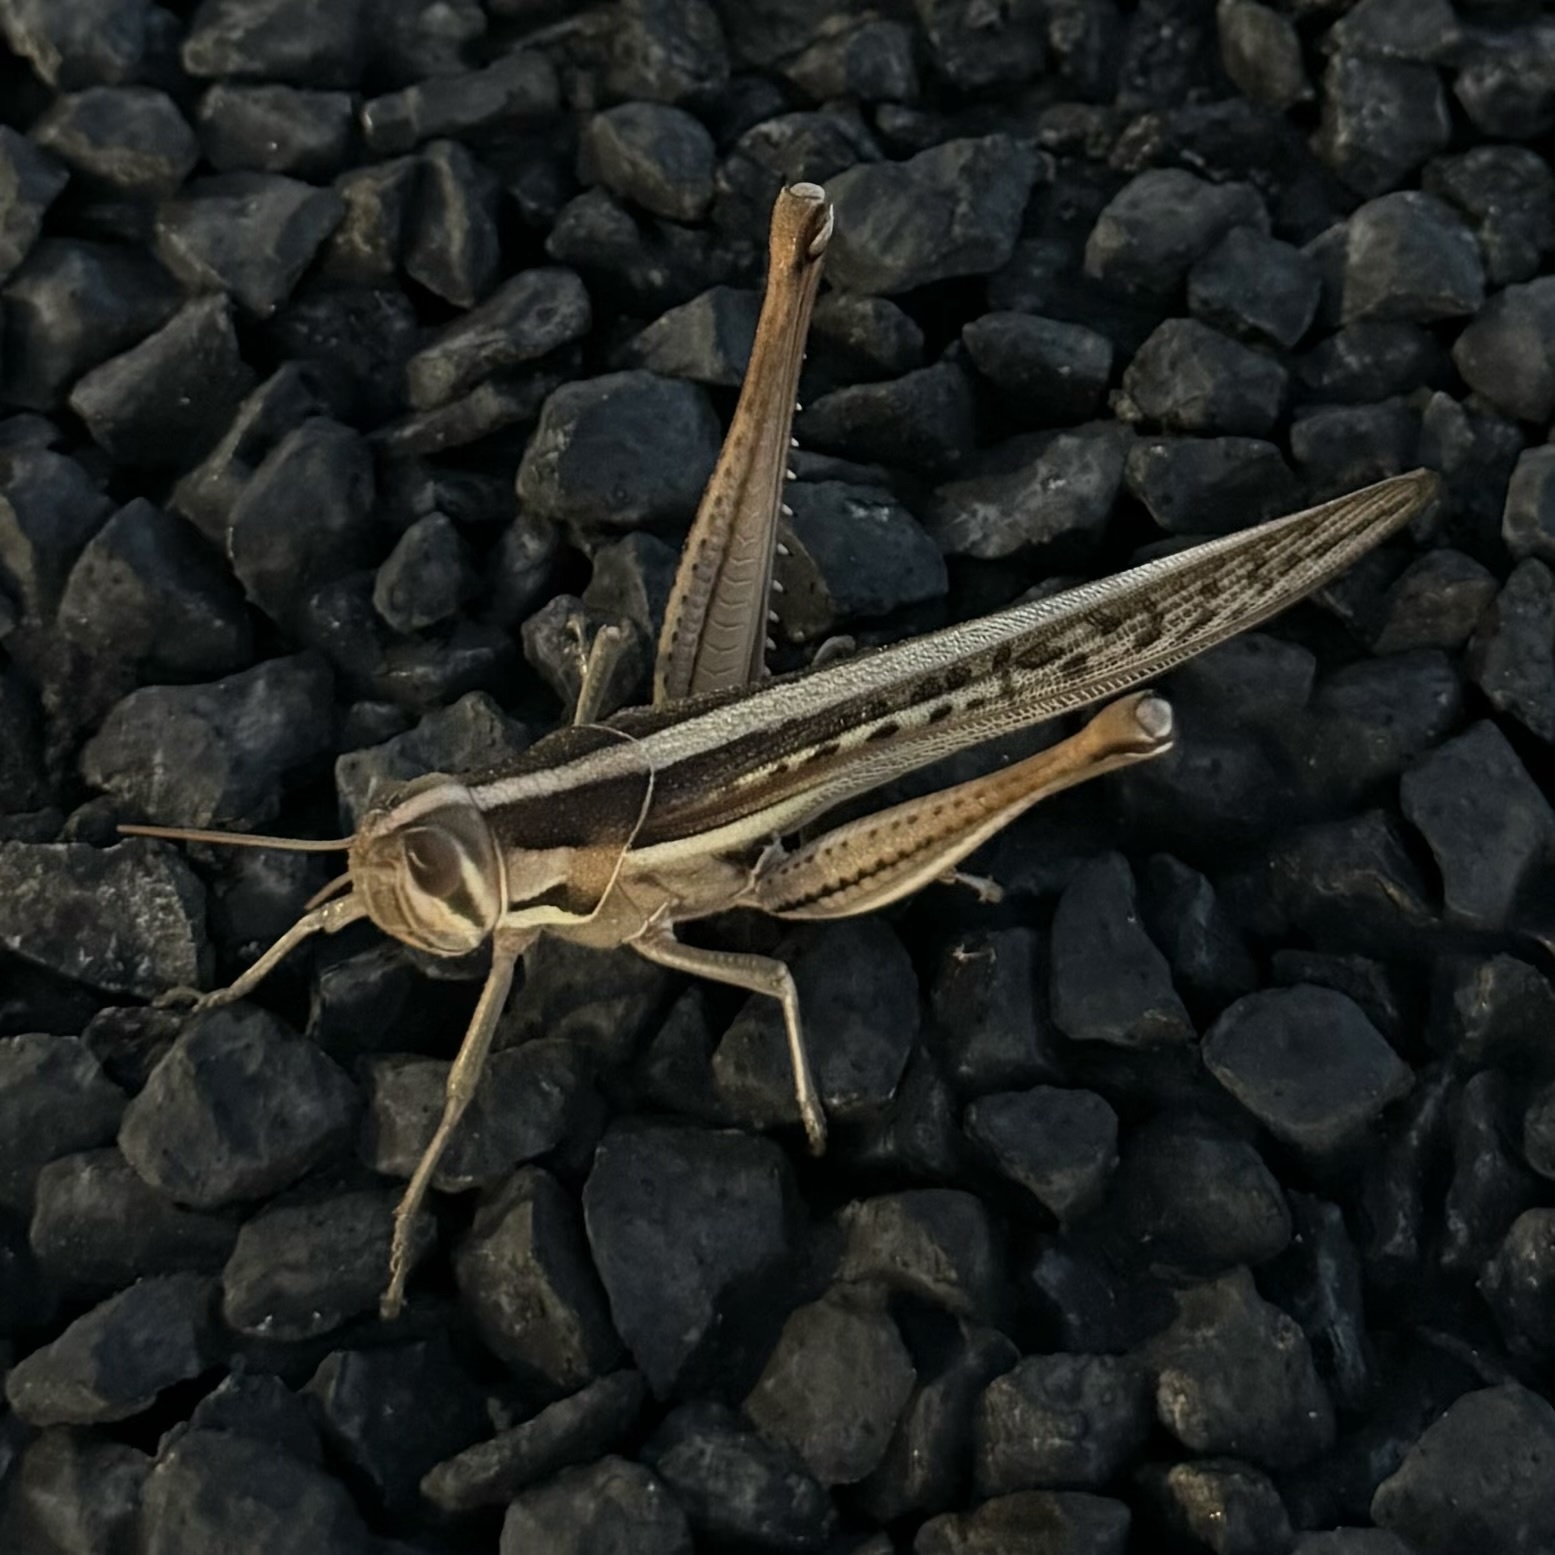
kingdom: Animalia
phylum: Arthropoda
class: Insecta
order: Orthoptera
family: Acrididae
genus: Austracris
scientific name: Austracris guttulosa
